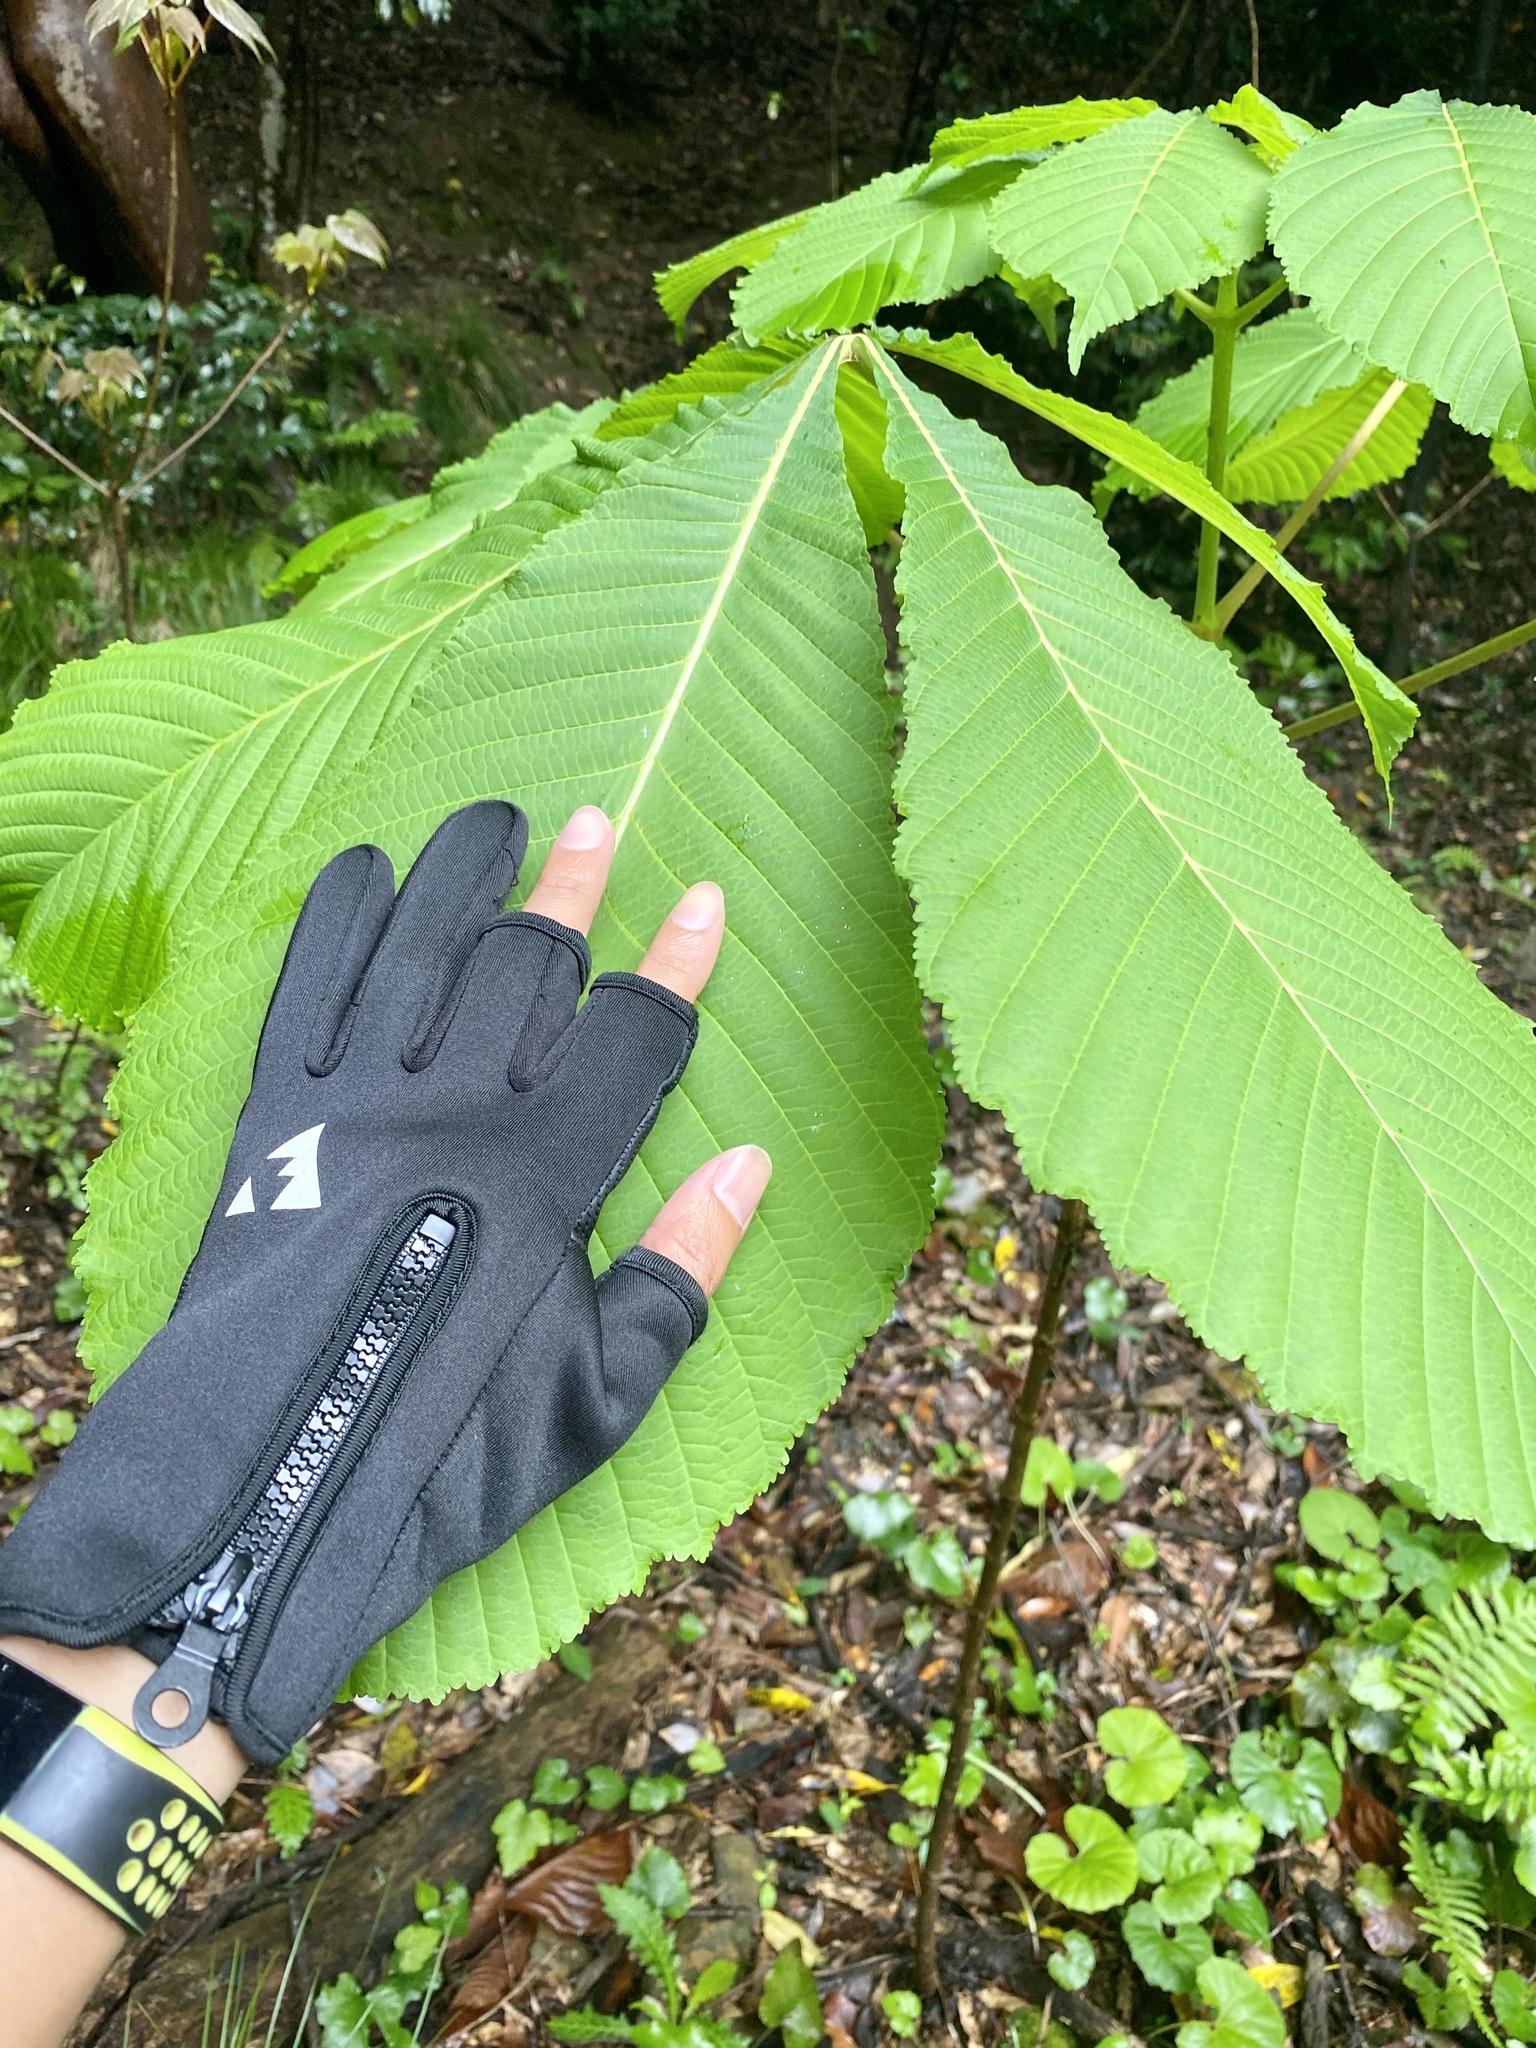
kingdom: Plantae
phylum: Tracheophyta
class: Magnoliopsida
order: Sapindales
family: Sapindaceae
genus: Aesculus
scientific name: Aesculus turbinata
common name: Japanese horse-chestnut
